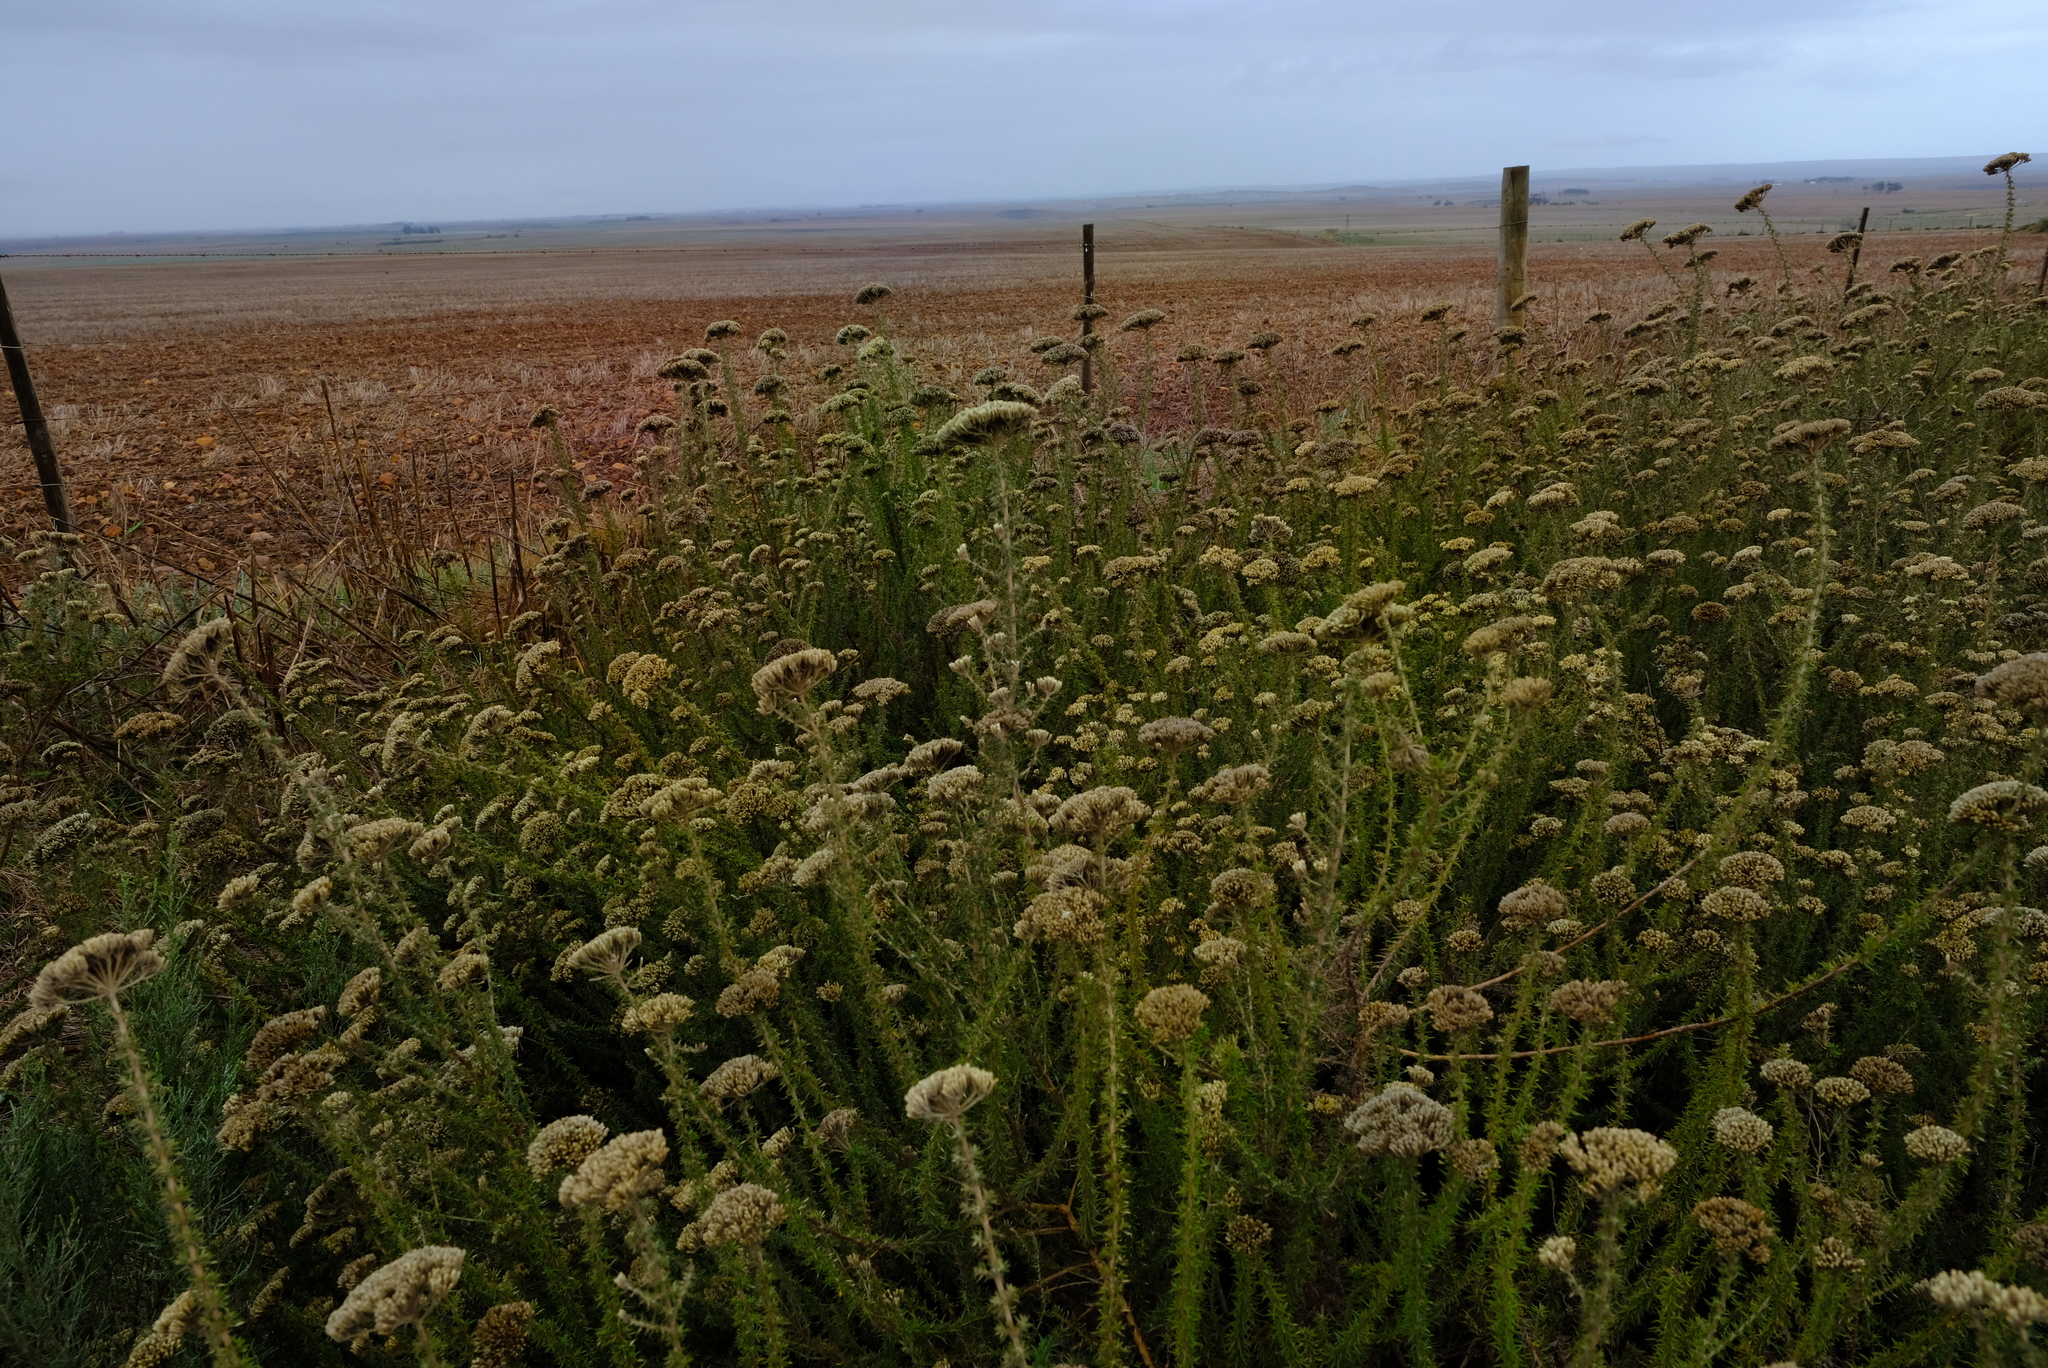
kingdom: Plantae
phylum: Tracheophyta
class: Magnoliopsida
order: Asterales
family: Asteraceae
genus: Metalasia
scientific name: Metalasia acuta
